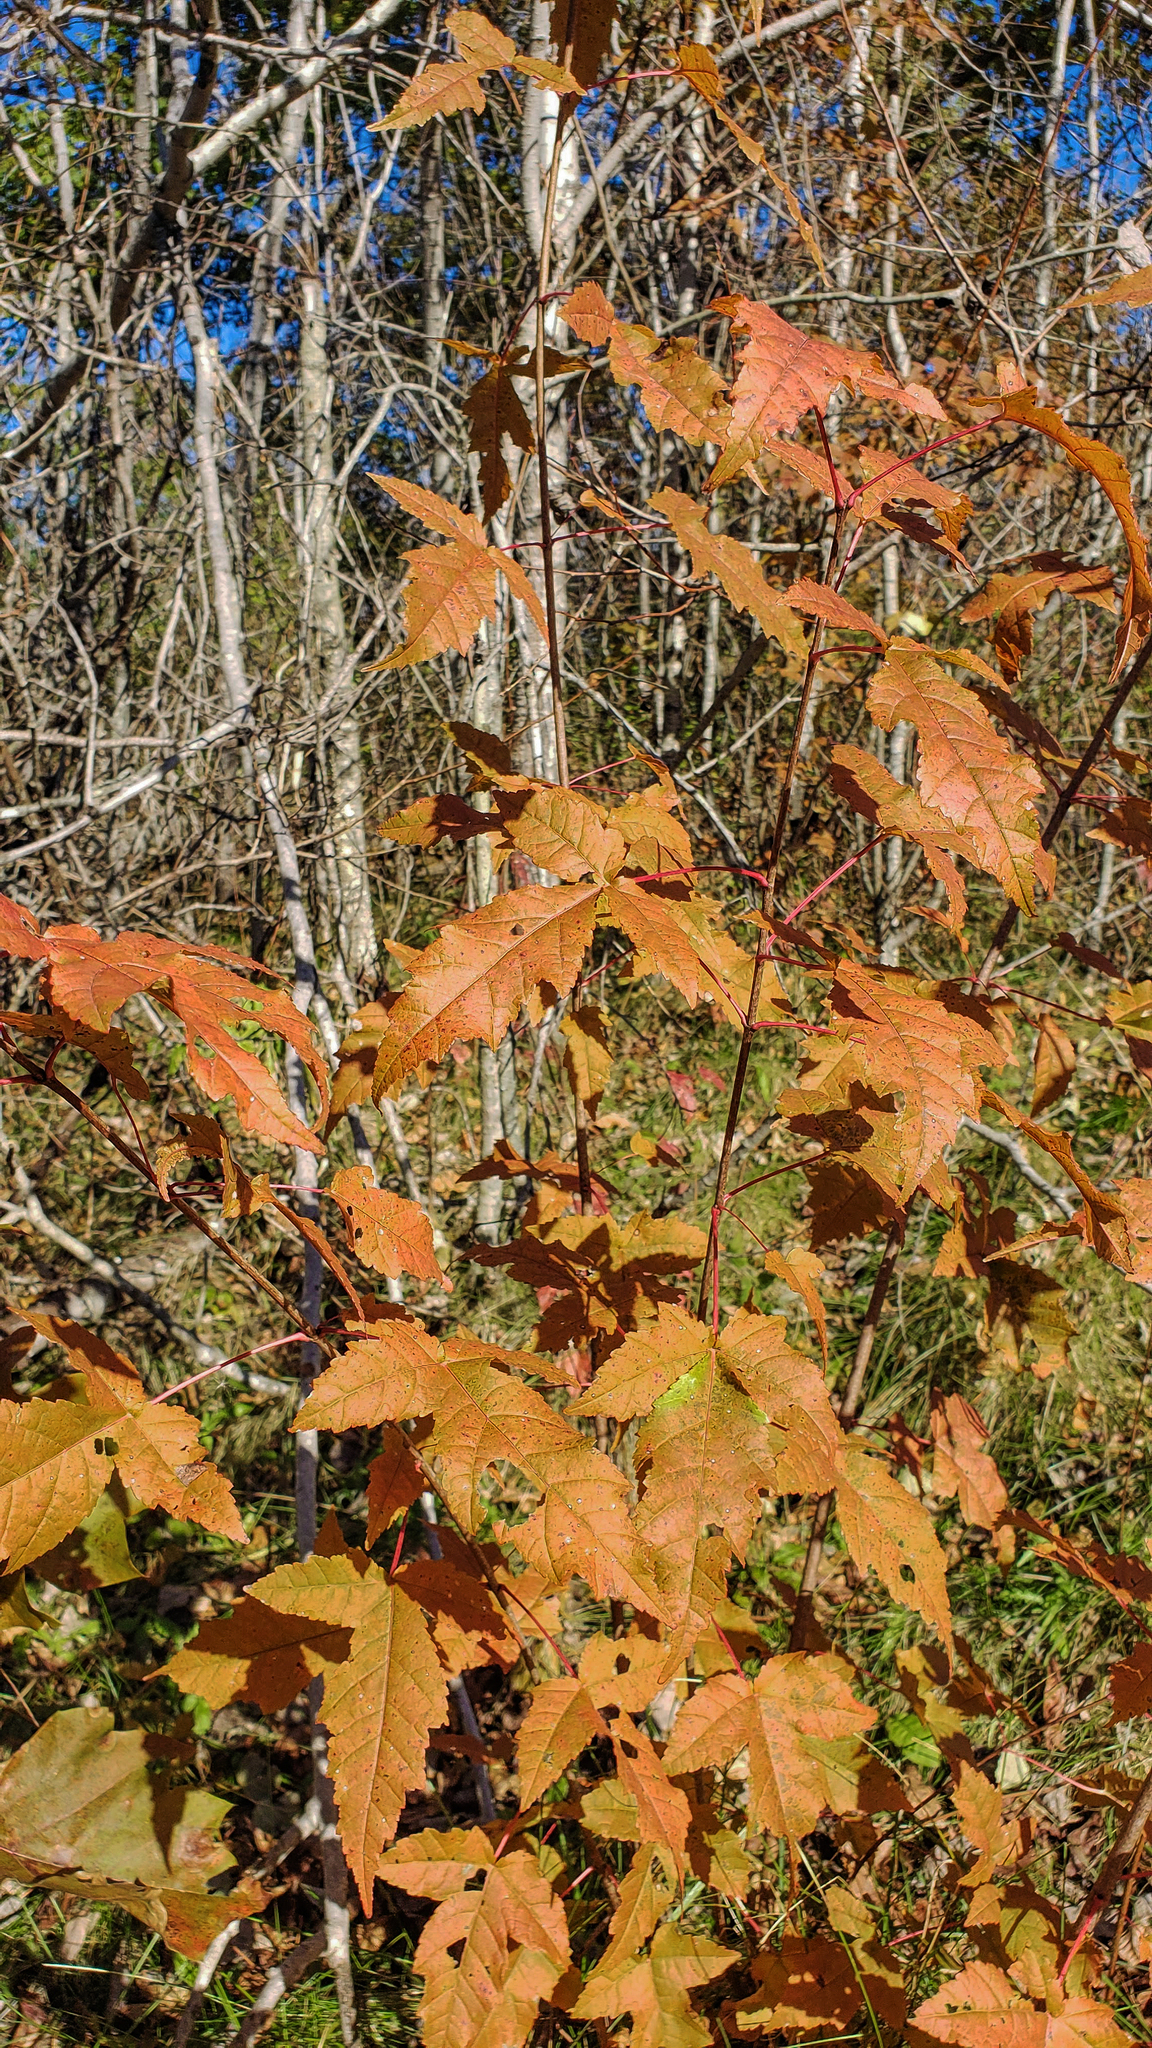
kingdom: Plantae
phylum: Tracheophyta
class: Magnoliopsida
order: Sapindales
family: Sapindaceae
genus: Acer
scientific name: Acer tataricum
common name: Tartar maple
